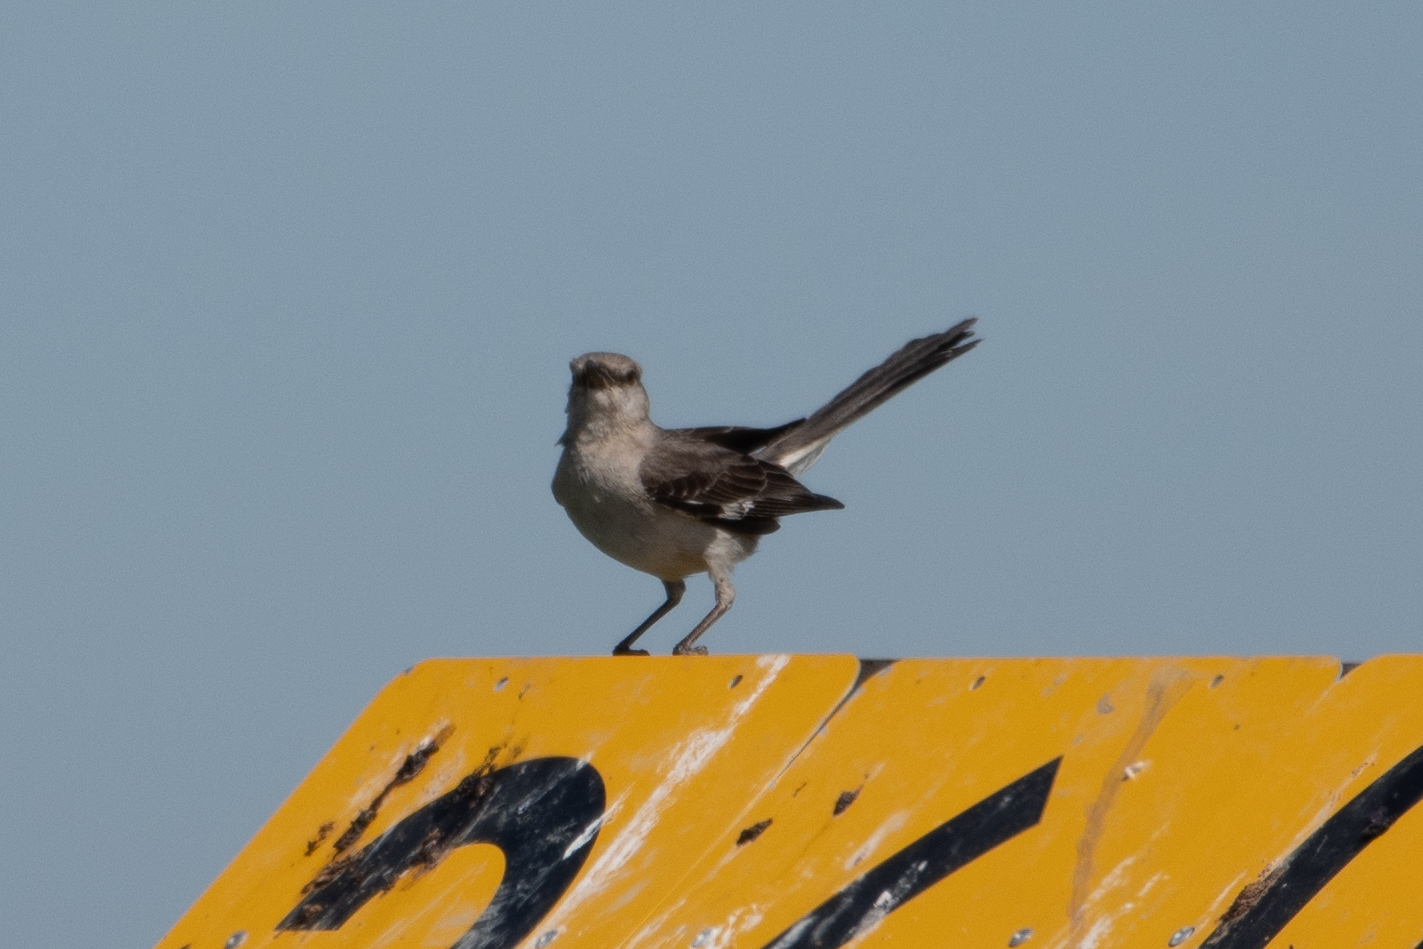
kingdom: Animalia
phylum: Chordata
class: Aves
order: Passeriformes
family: Mimidae
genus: Mimus
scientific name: Mimus polyglottos
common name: Northern mockingbird
